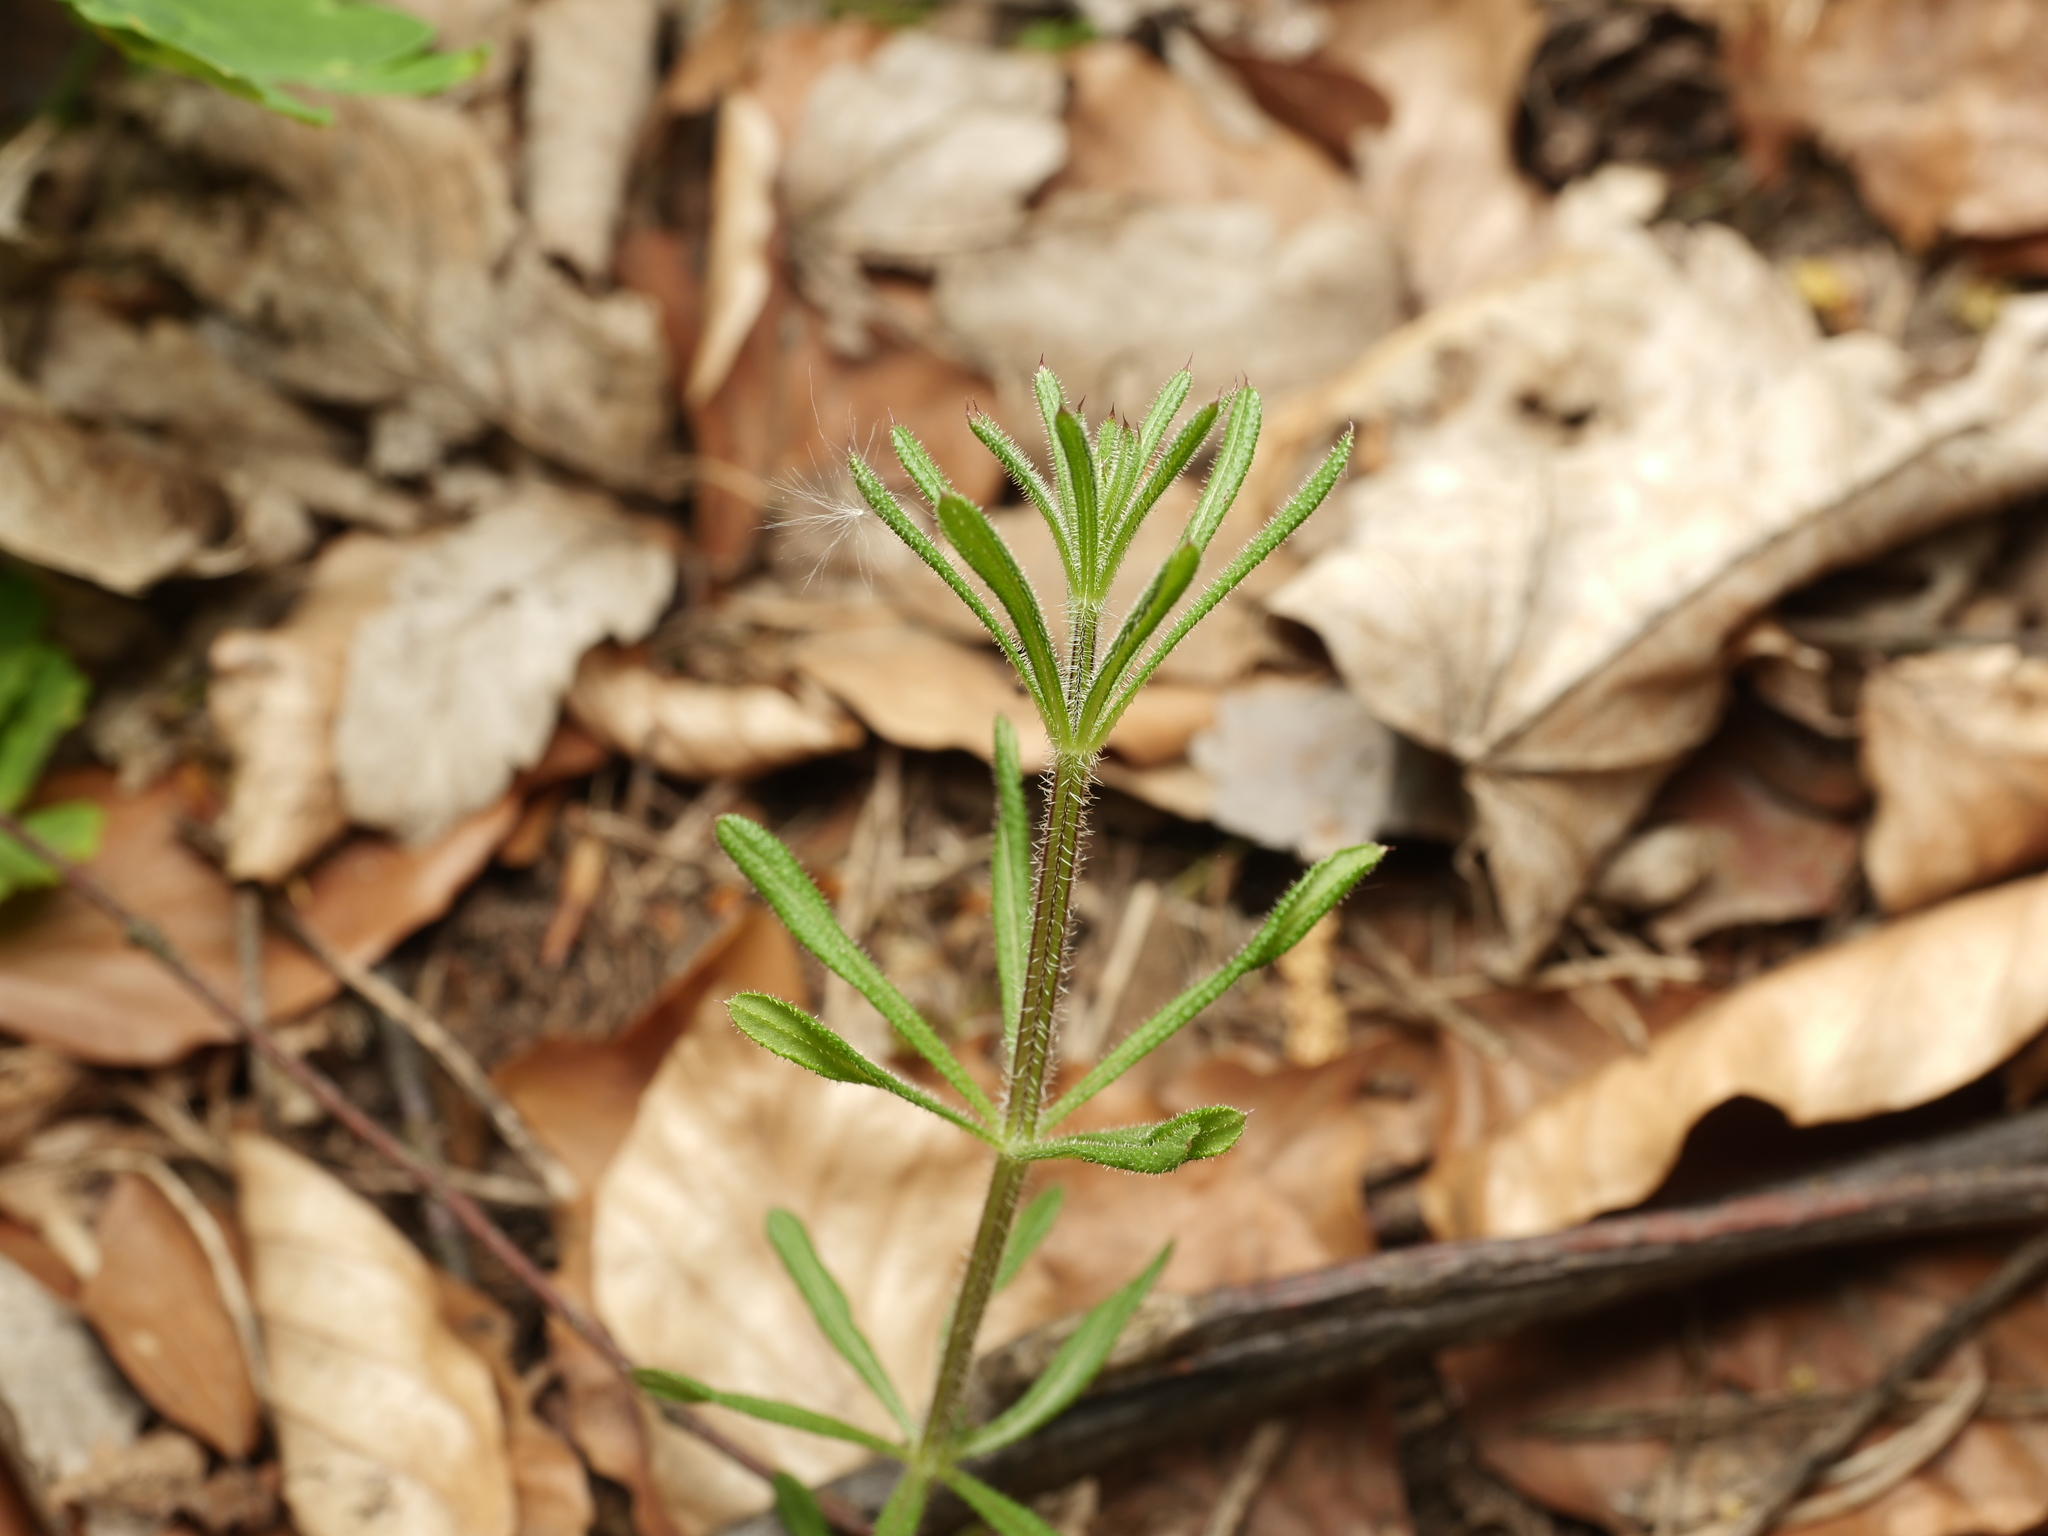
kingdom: Plantae
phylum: Tracheophyta
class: Magnoliopsida
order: Gentianales
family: Rubiaceae
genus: Galium
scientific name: Galium aparine
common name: Cleavers
